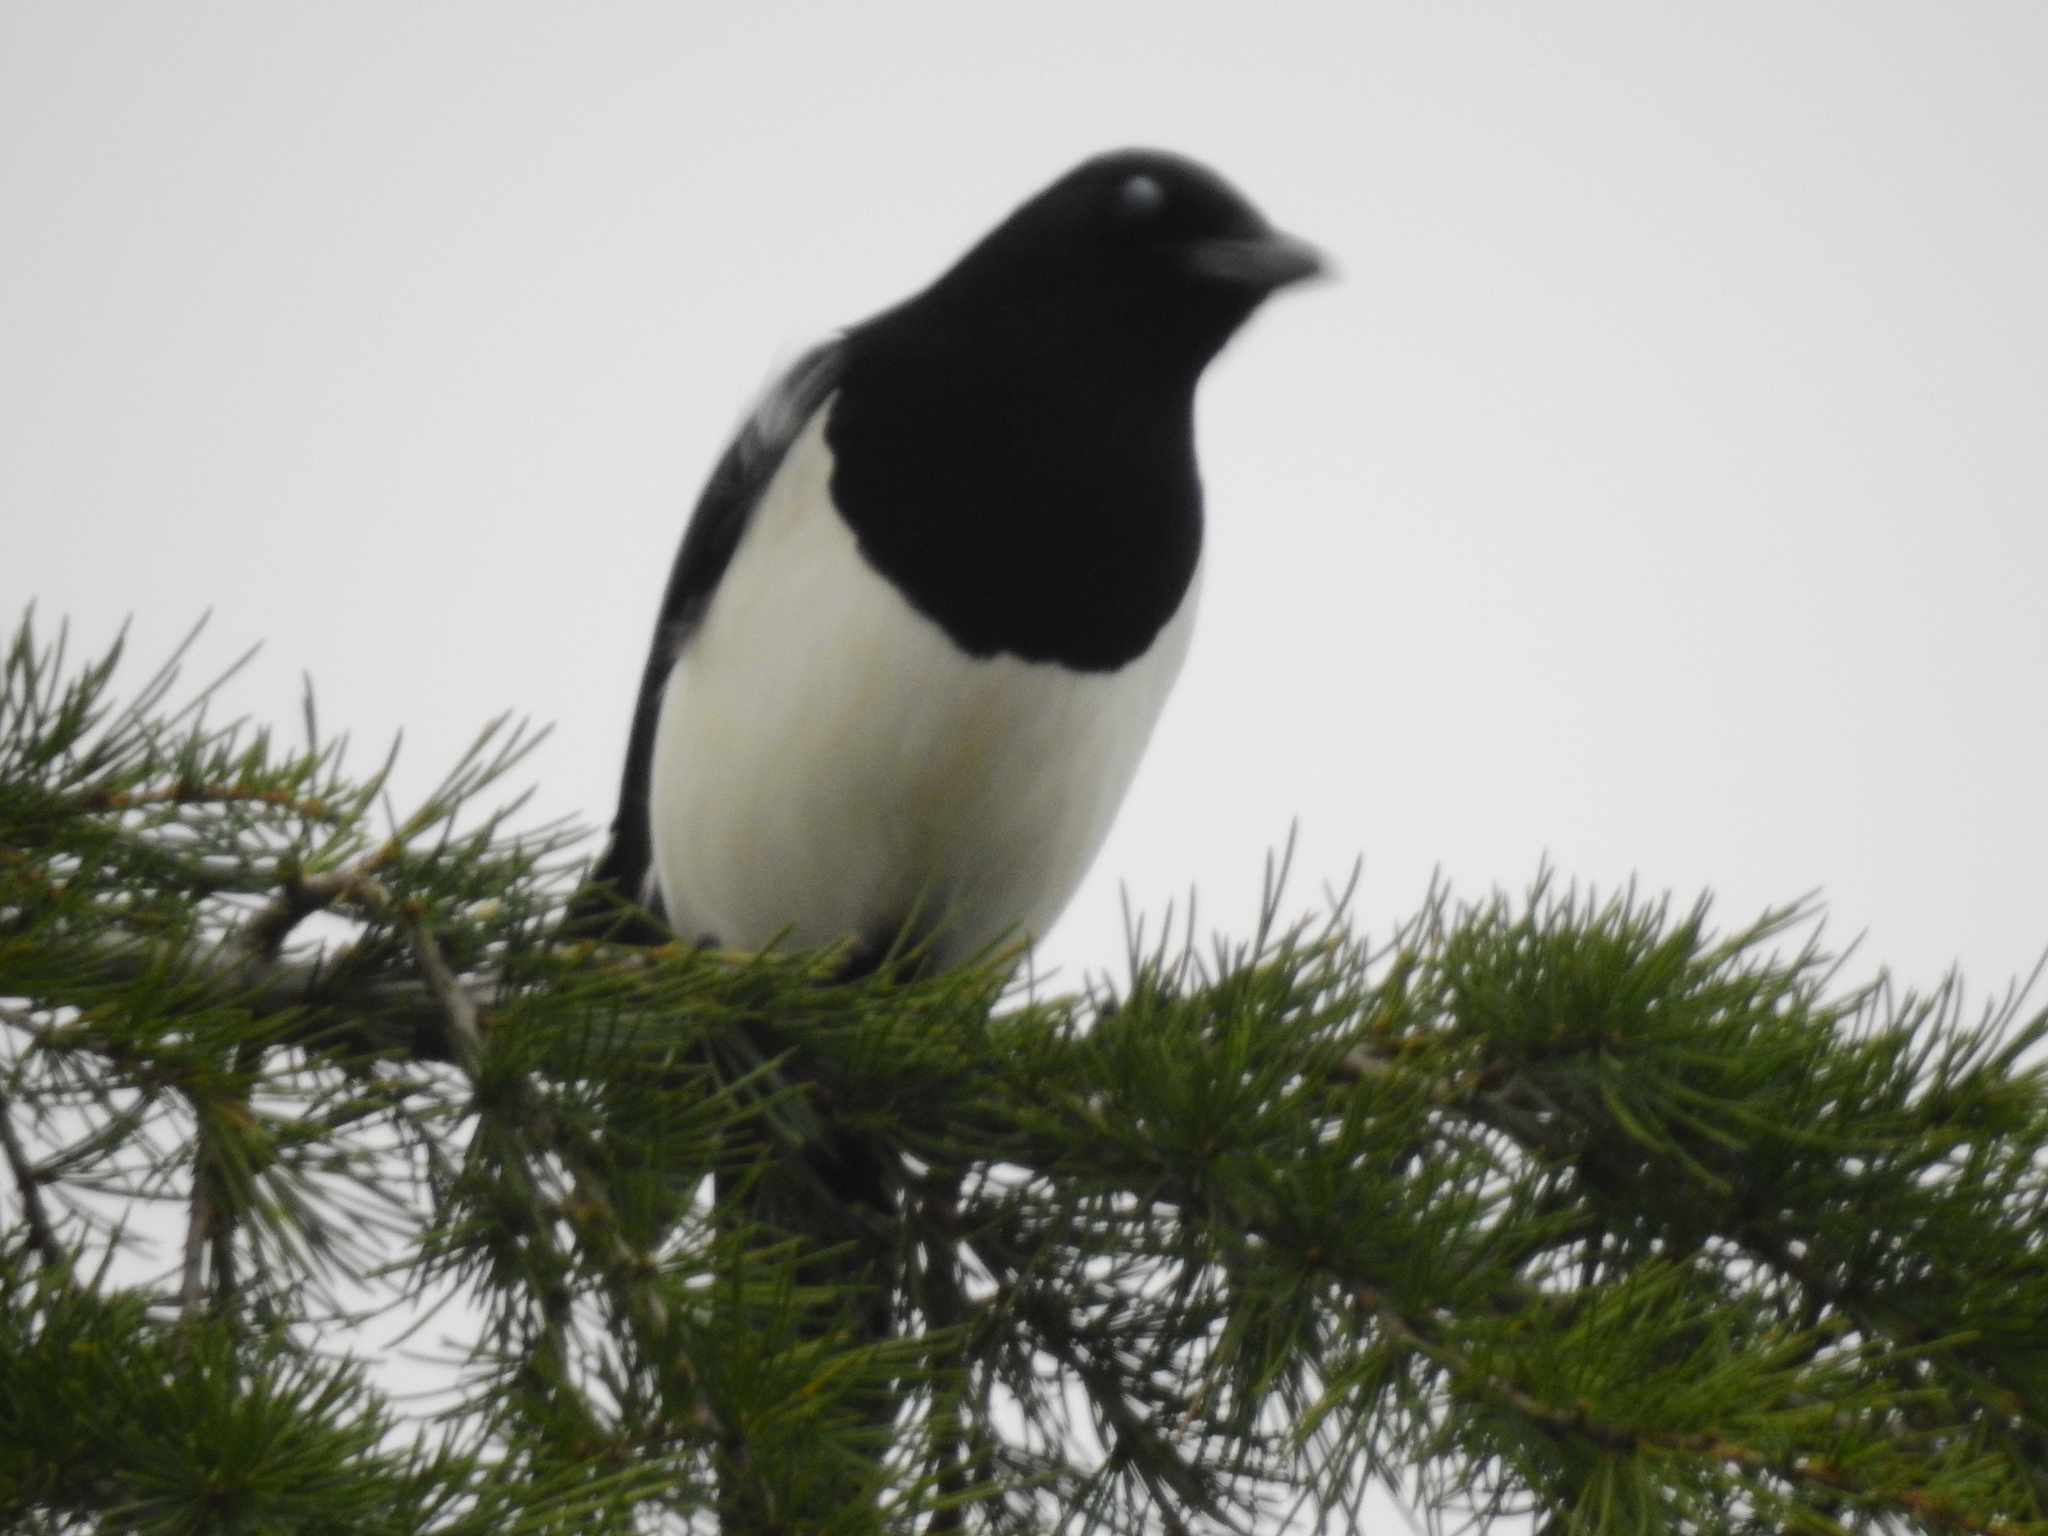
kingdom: Animalia
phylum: Chordata
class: Aves
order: Passeriformes
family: Corvidae
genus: Pica
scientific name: Pica pica
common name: Eurasian magpie
